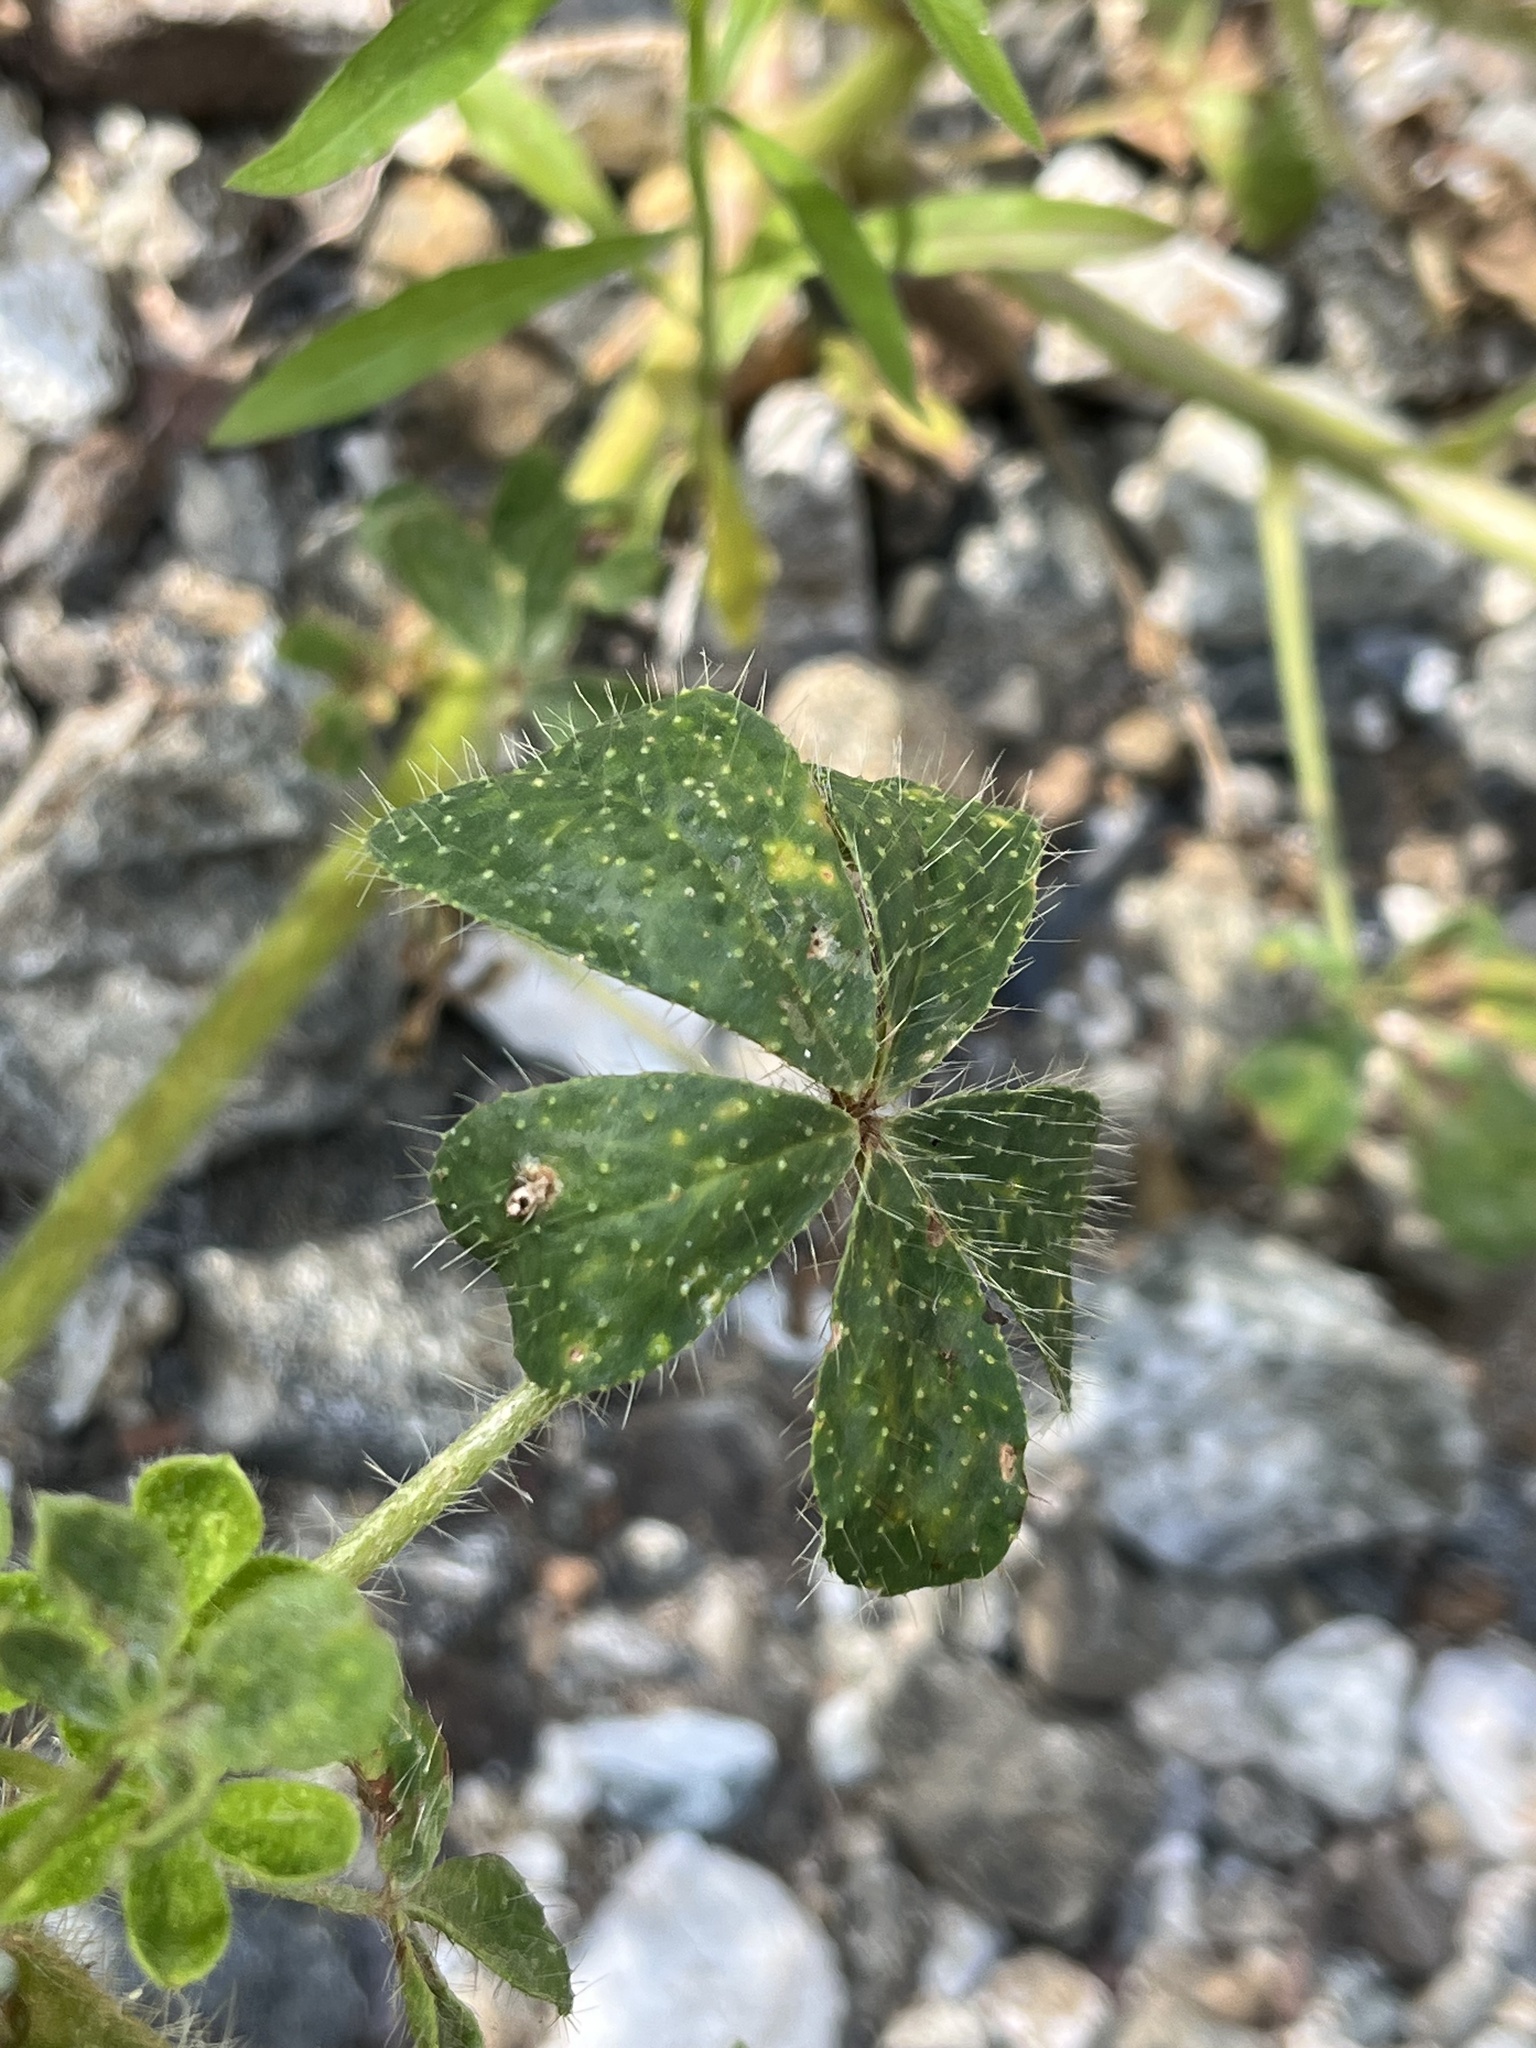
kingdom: Plantae
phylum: Tracheophyta
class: Magnoliopsida
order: Fabales
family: Fabaceae
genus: Lupinus
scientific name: Lupinus hirsutissimus
